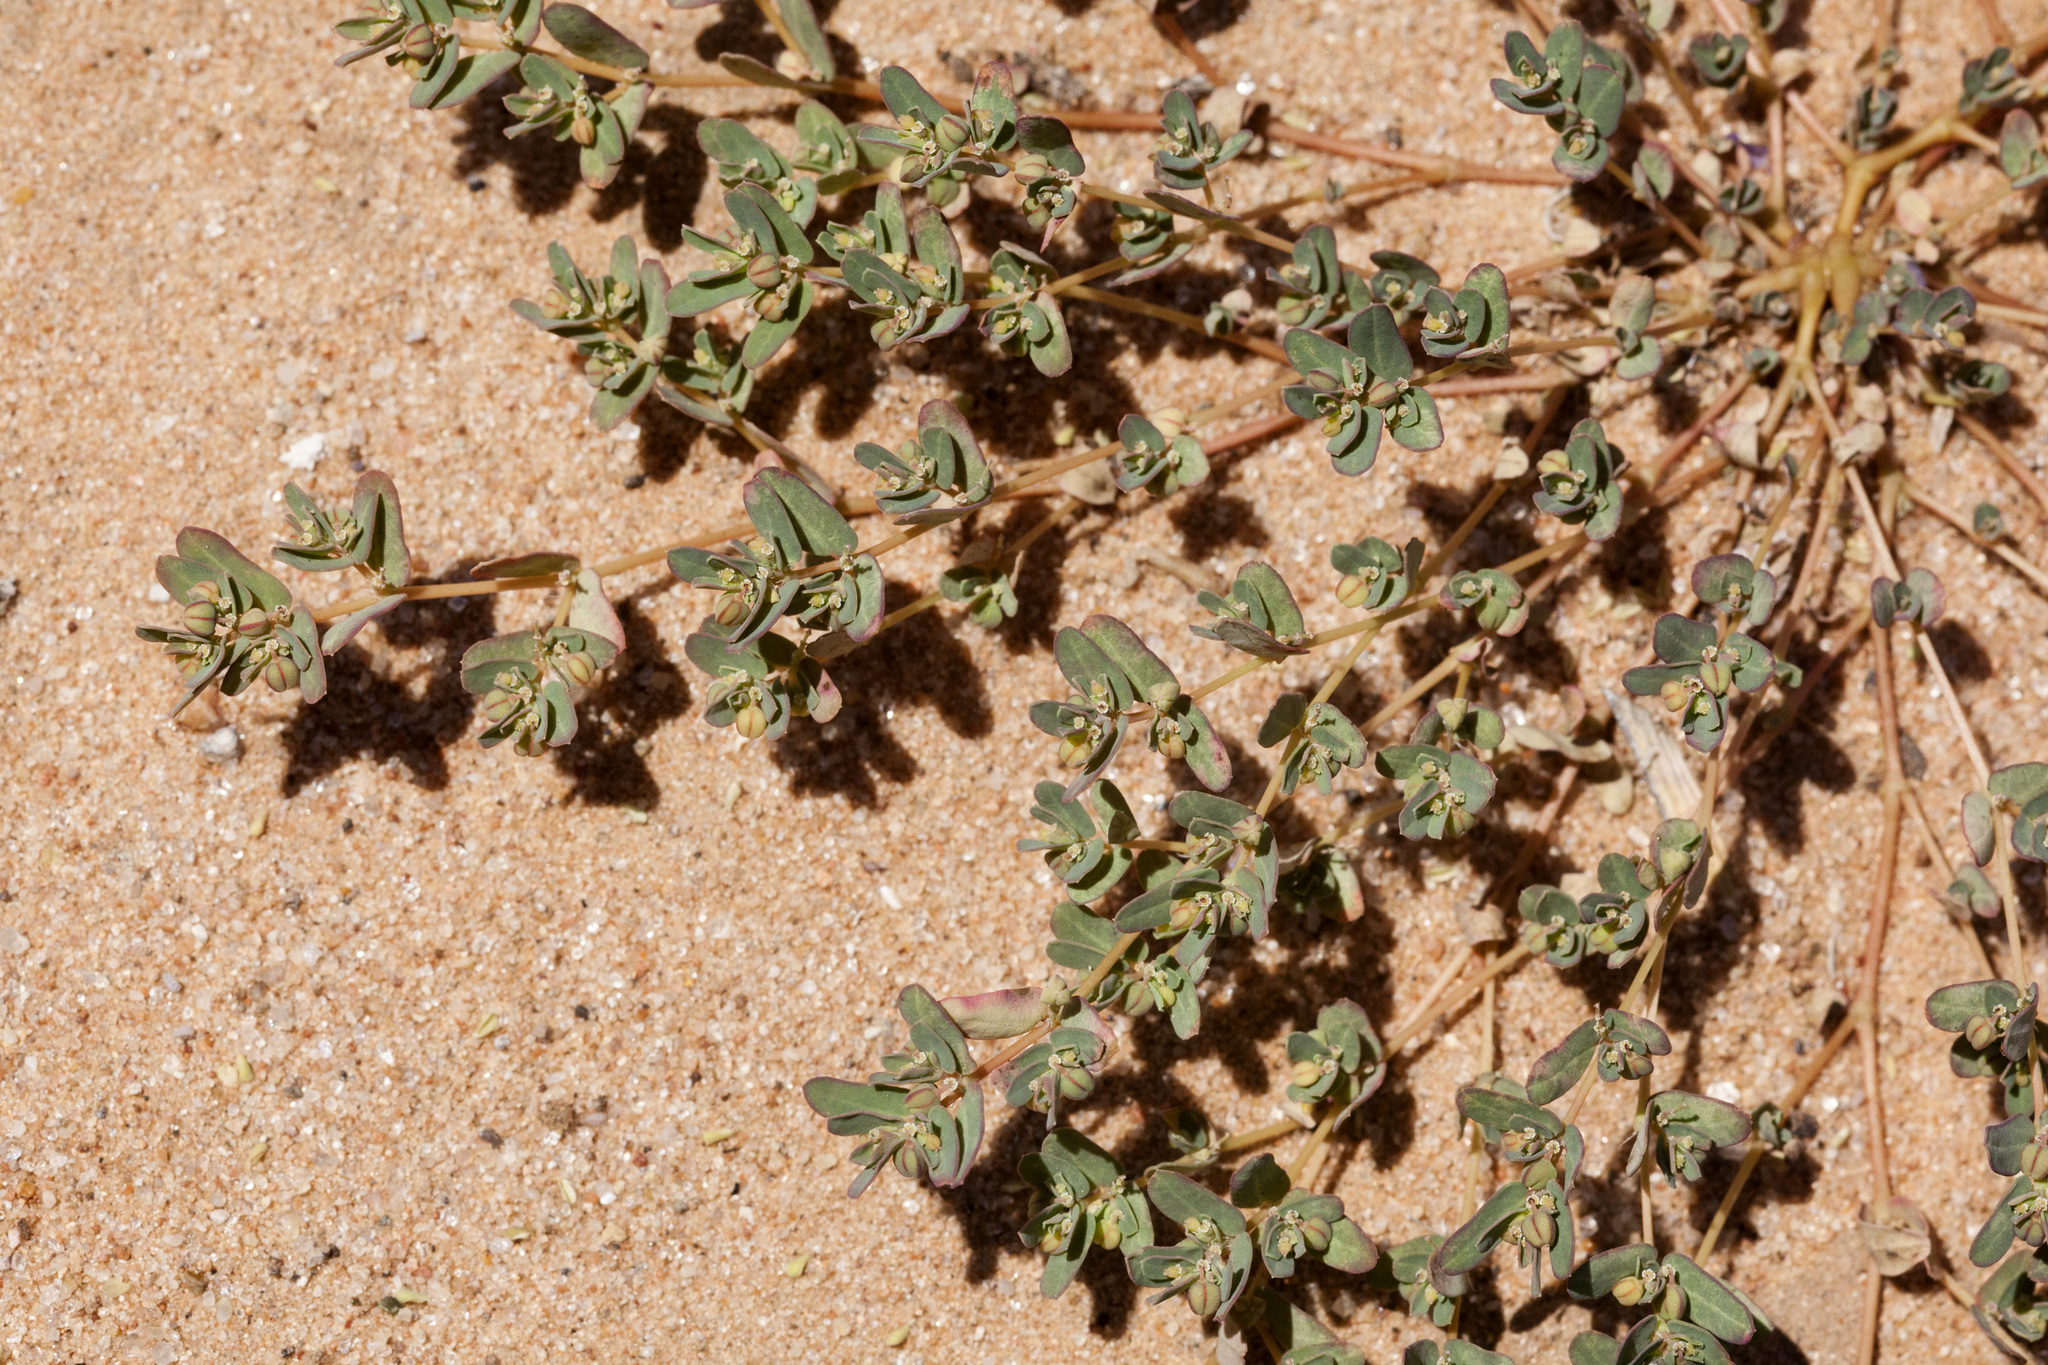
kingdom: Plantae
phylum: Tracheophyta
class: Magnoliopsida
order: Malpighiales
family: Euphorbiaceae
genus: Euphorbia
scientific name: Euphorbia glyptosperma
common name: Corrugate-seeded spurge
